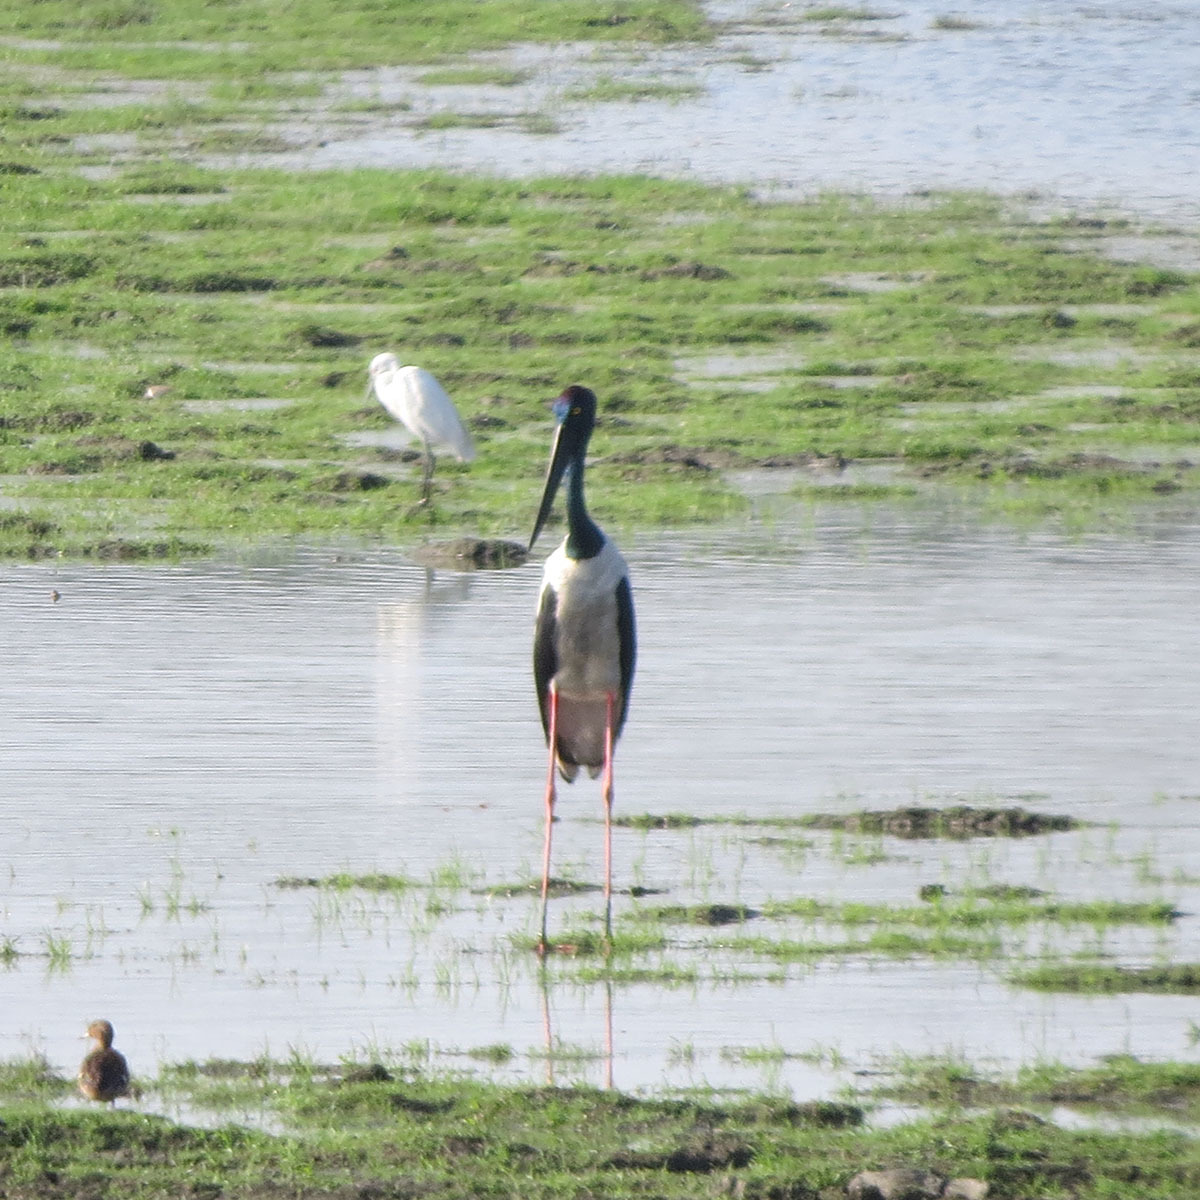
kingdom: Animalia
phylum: Chordata
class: Aves
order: Ciconiiformes
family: Ciconiidae
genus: Ephippiorhynchus
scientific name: Ephippiorhynchus asiaticus
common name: Black-necked stork
